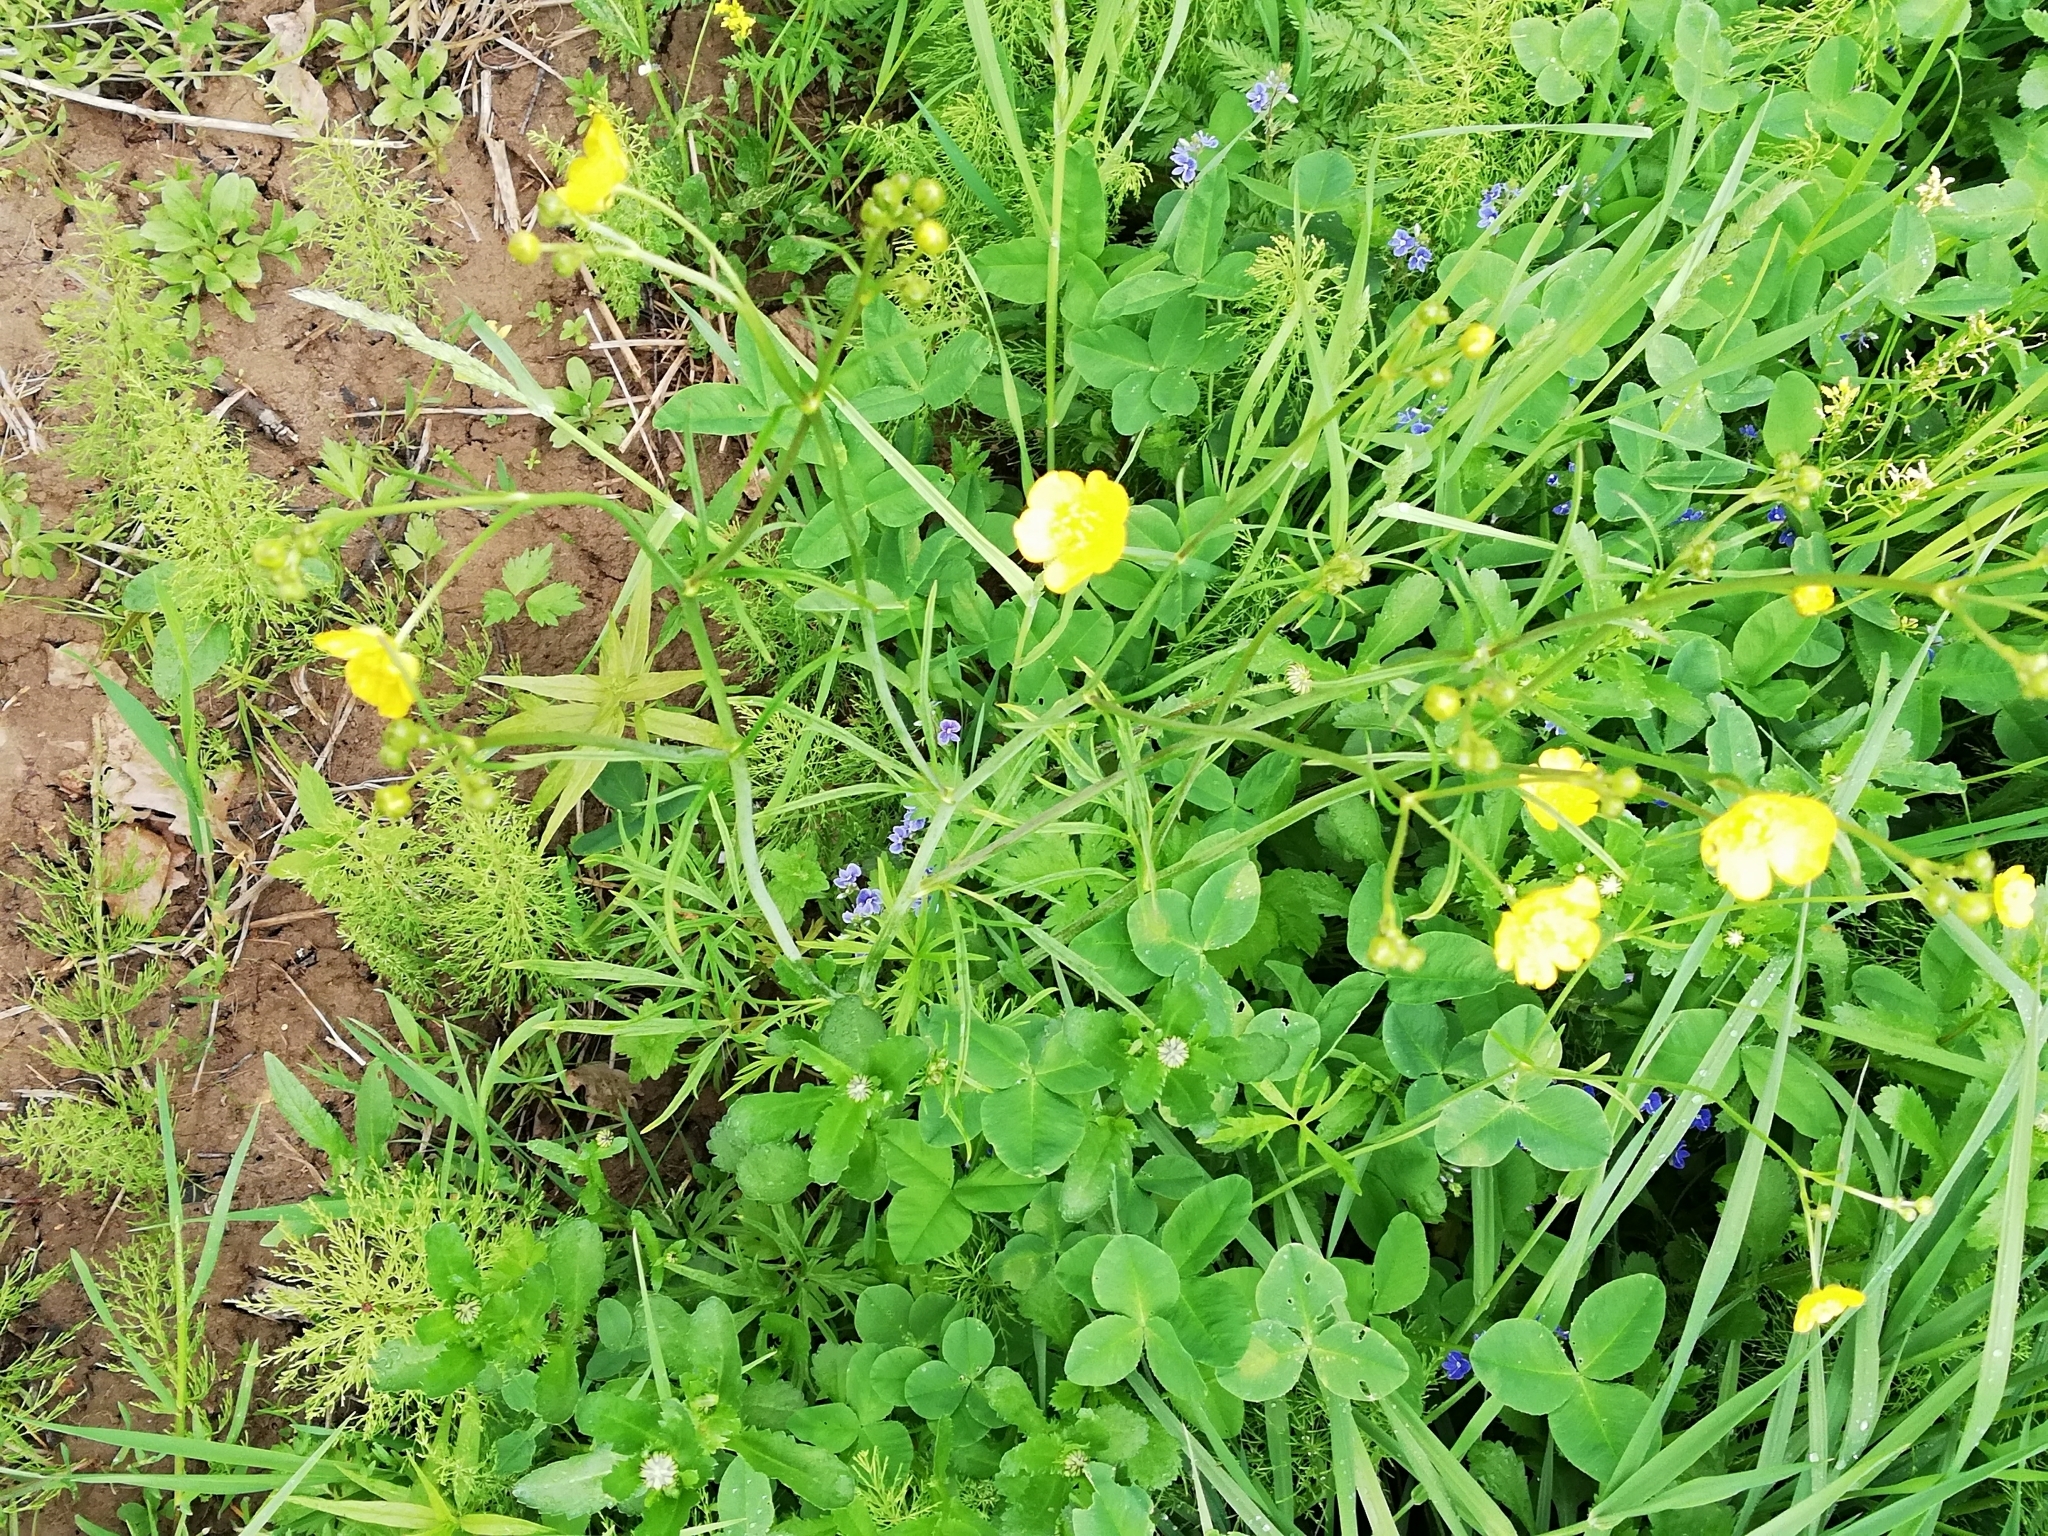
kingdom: Plantae
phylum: Tracheophyta
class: Magnoliopsida
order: Ranunculales
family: Ranunculaceae
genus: Ranunculus
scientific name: Ranunculus acris
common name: Meadow buttercup
